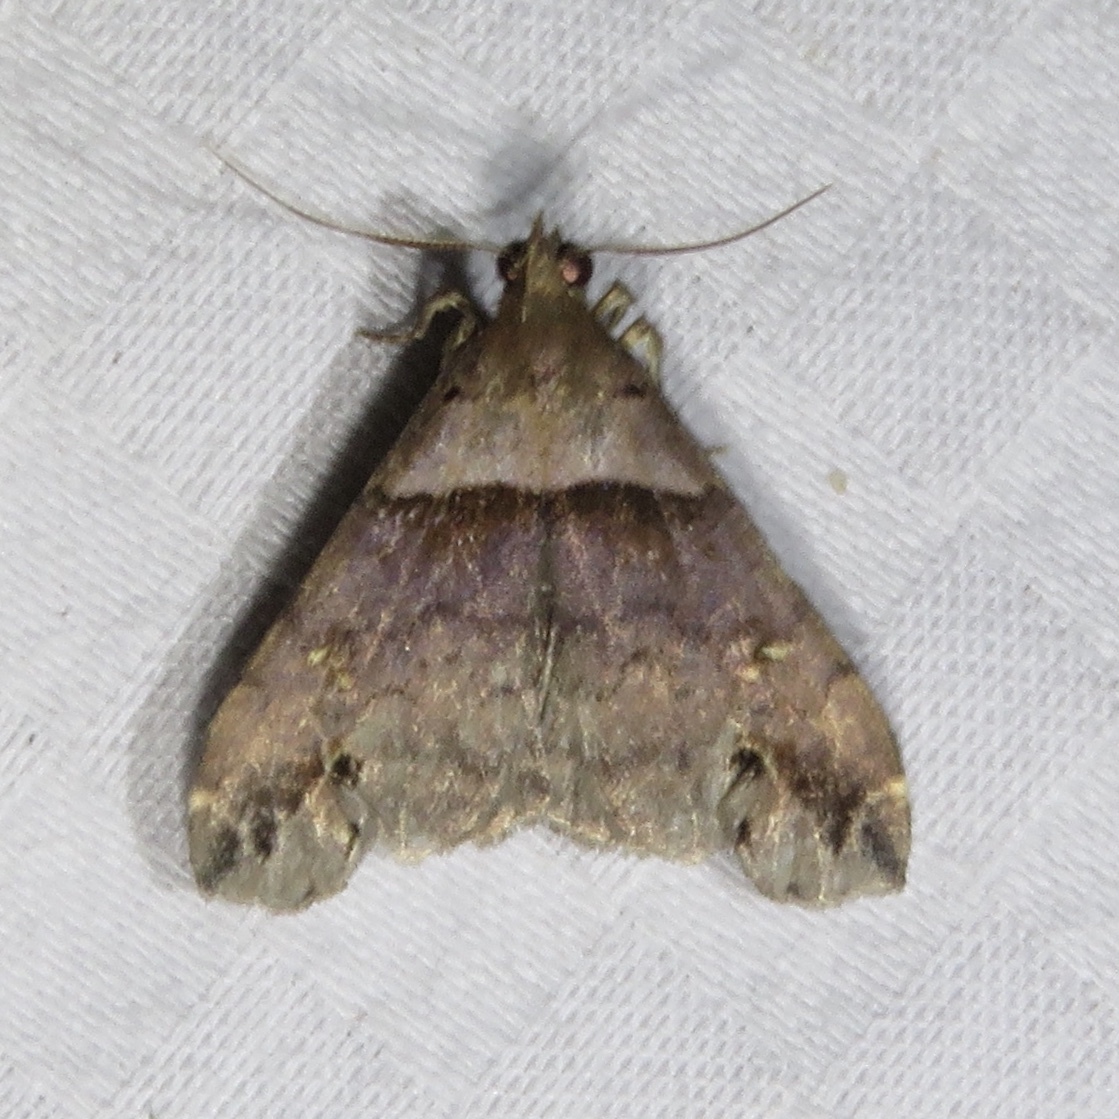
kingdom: Animalia
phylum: Arthropoda
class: Insecta
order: Lepidoptera
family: Erebidae
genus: Lascoria
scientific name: Lascoria ambigualis
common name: Ambiguous moth
